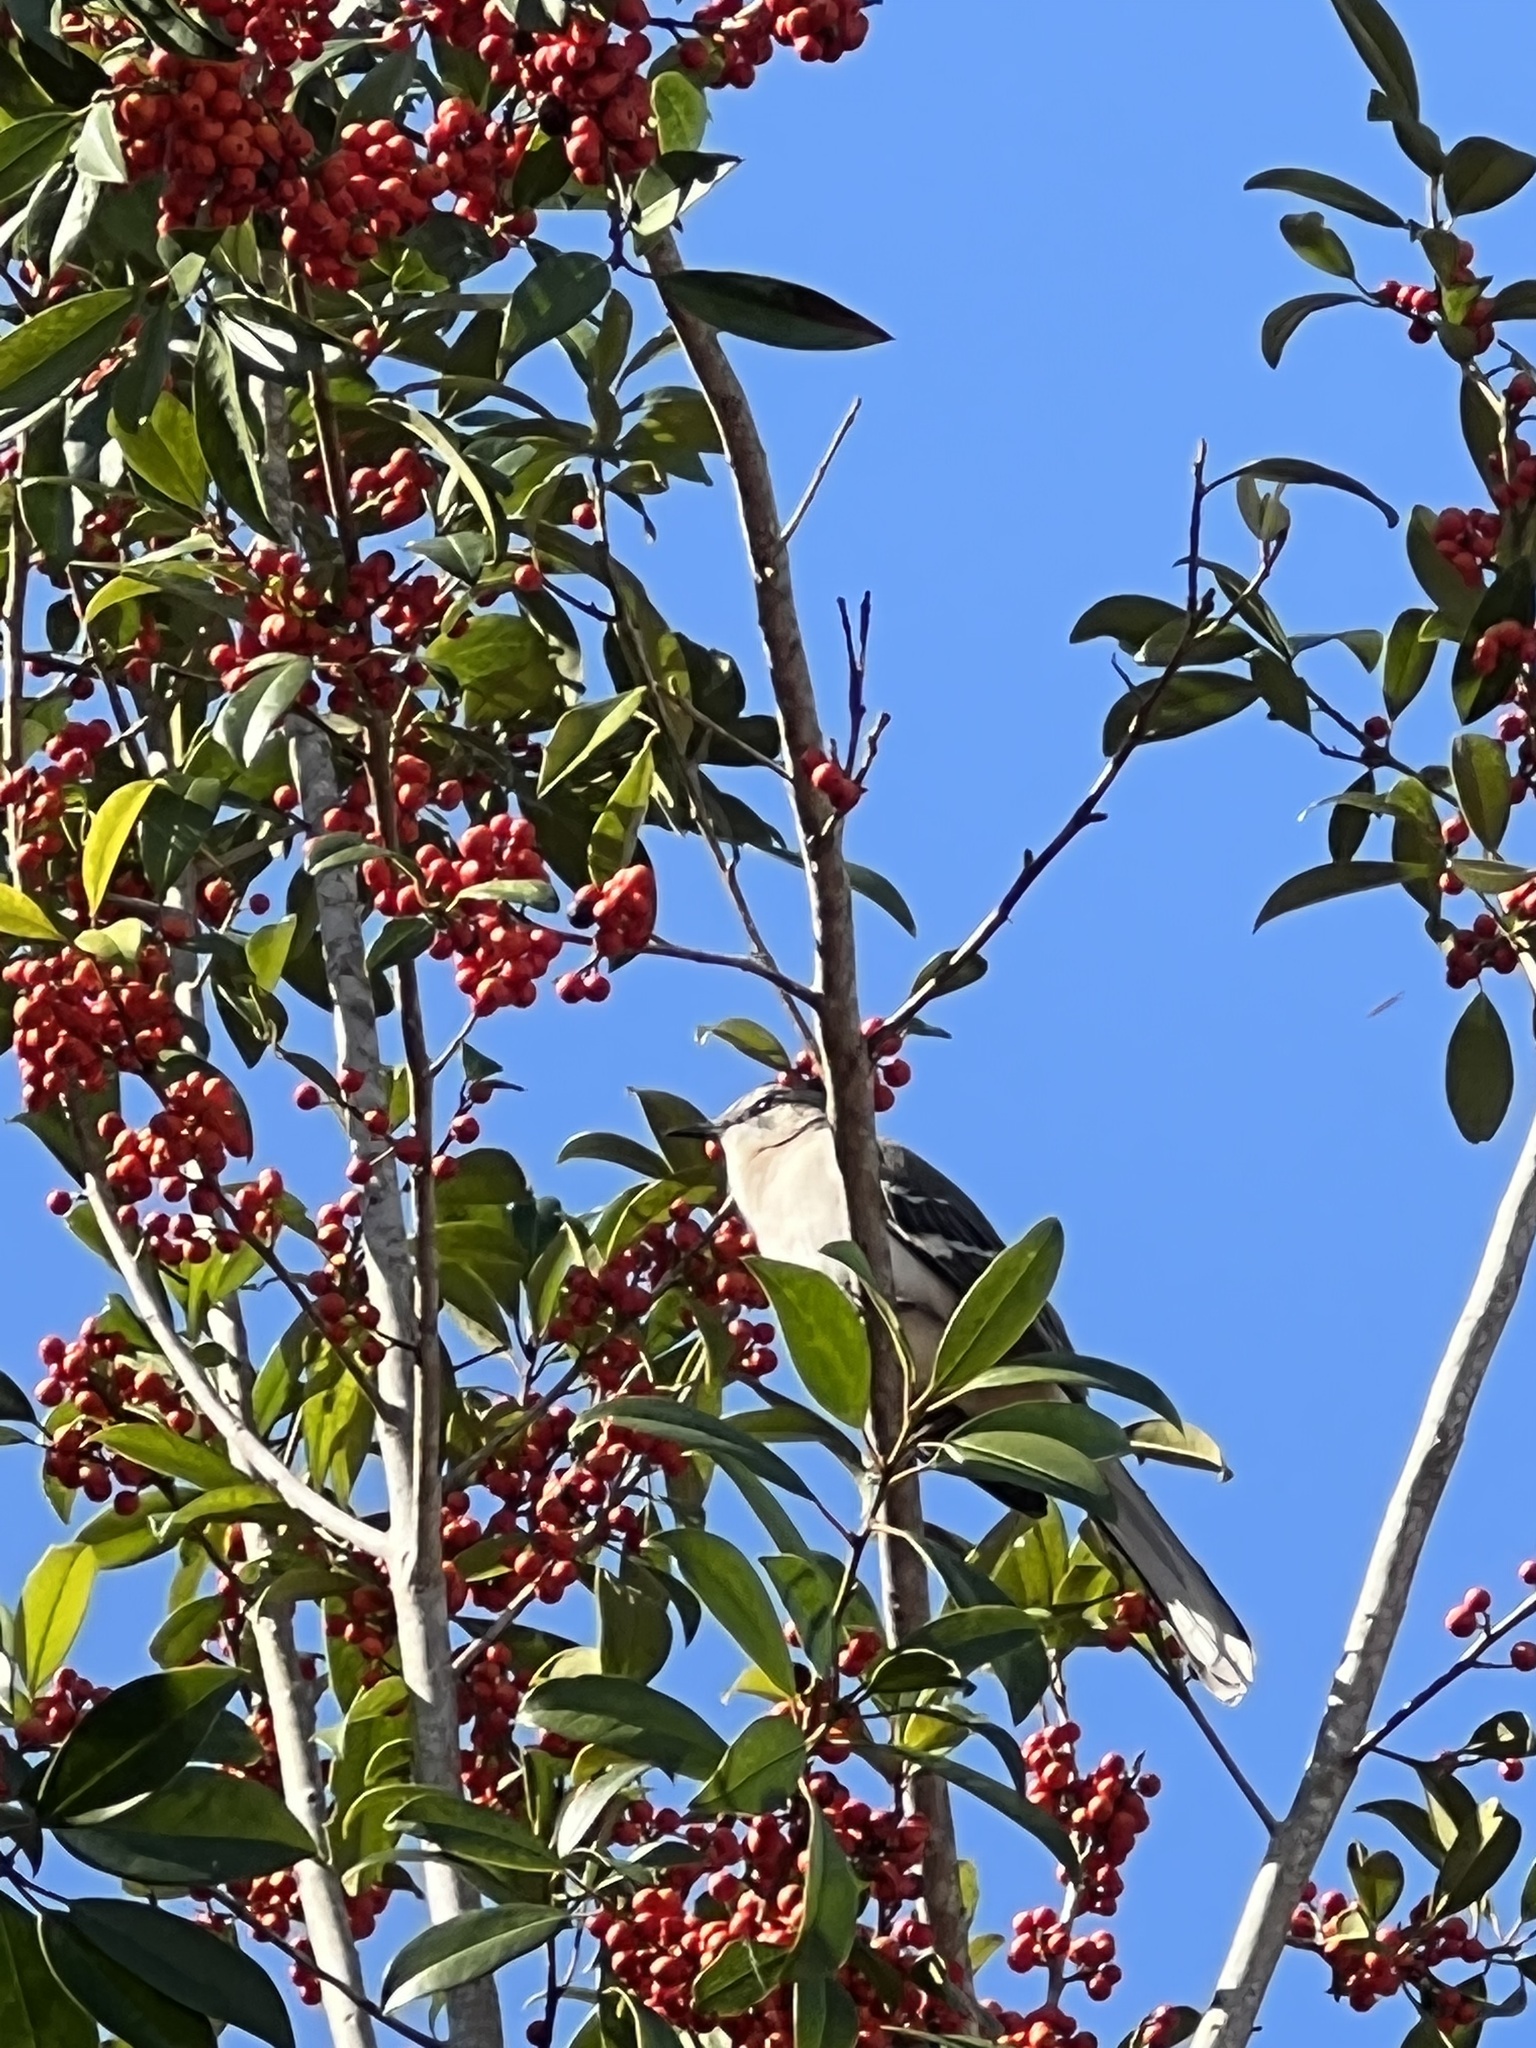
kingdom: Animalia
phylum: Chordata
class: Aves
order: Passeriformes
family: Mimidae
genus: Mimus
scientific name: Mimus polyglottos
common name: Northern mockingbird
